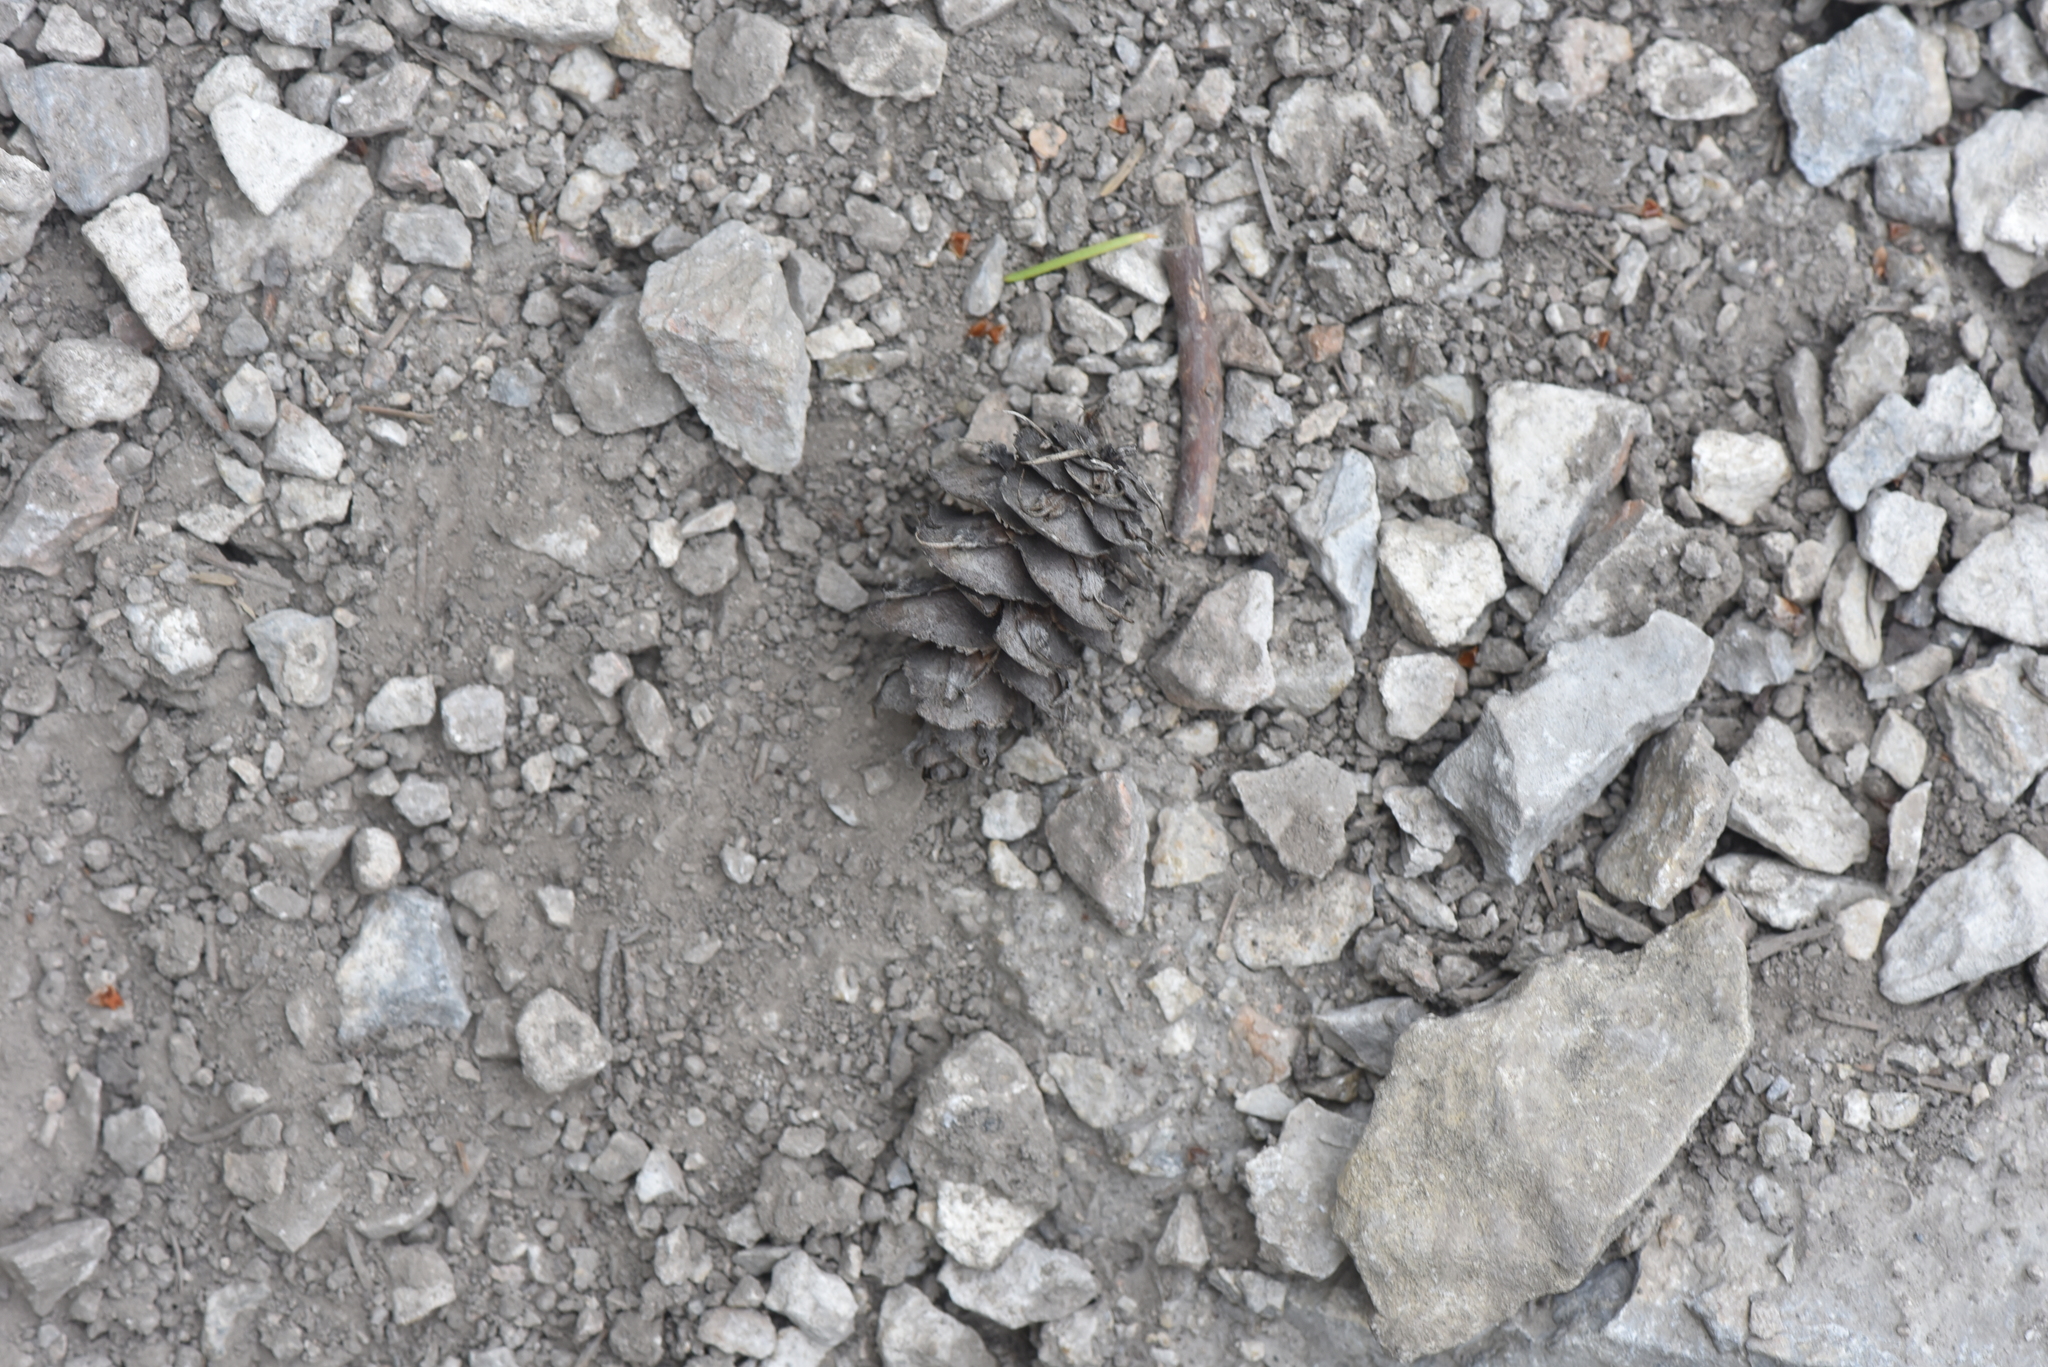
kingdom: Plantae
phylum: Tracheophyta
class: Pinopsida
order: Pinales
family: Pinaceae
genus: Pseudotsuga
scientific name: Pseudotsuga menziesii
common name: Douglas fir
